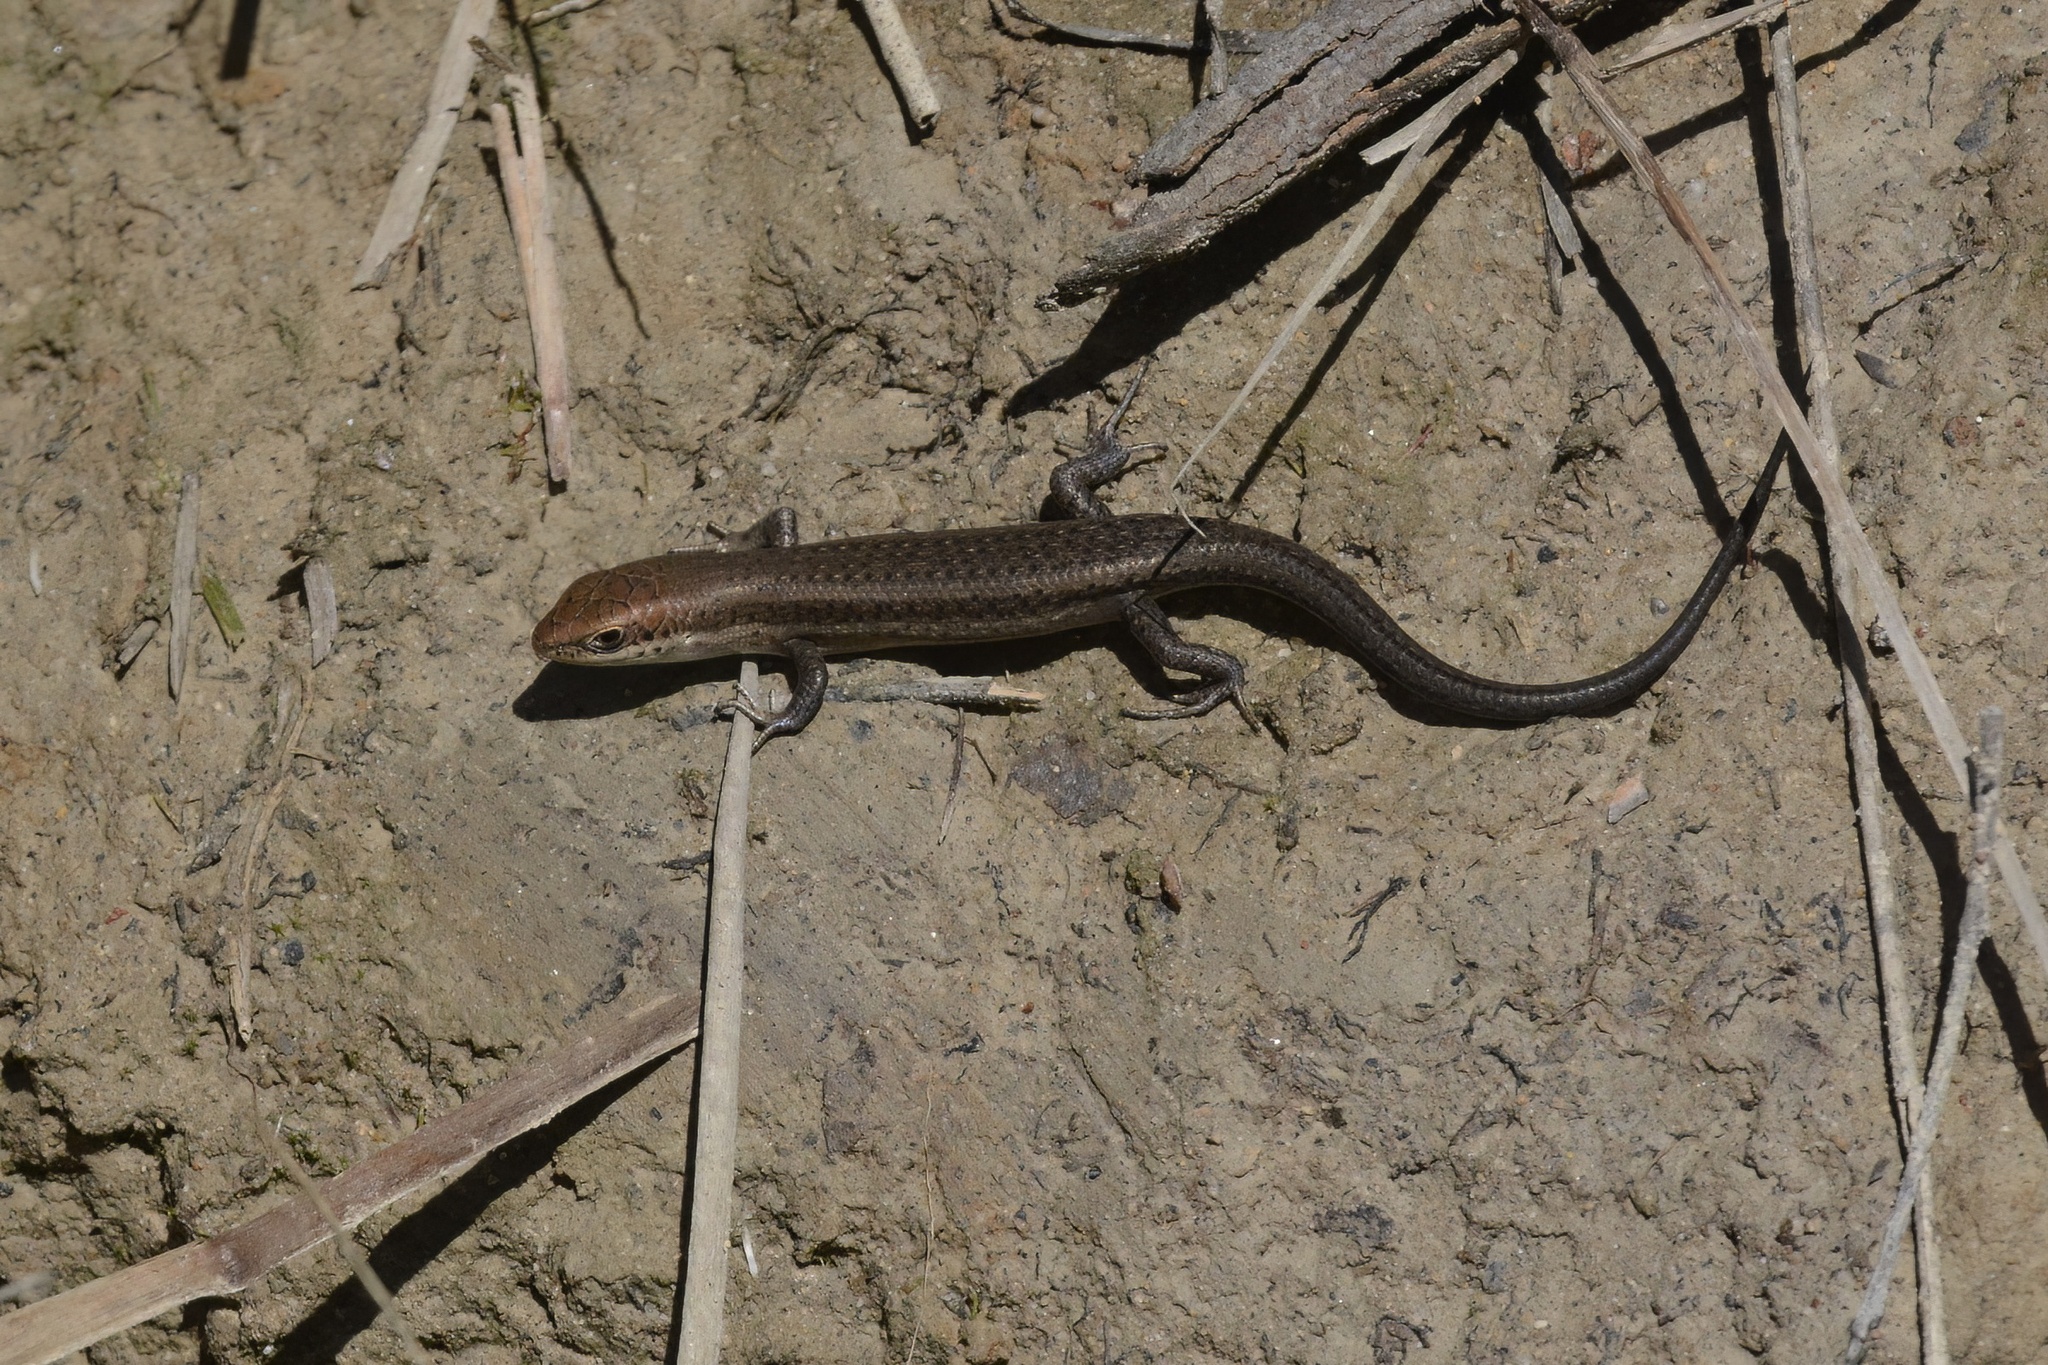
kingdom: Animalia
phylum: Chordata
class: Squamata
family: Scincidae
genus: Carlia
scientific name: Carlia tetradactyla
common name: Southern rainbow-skink
